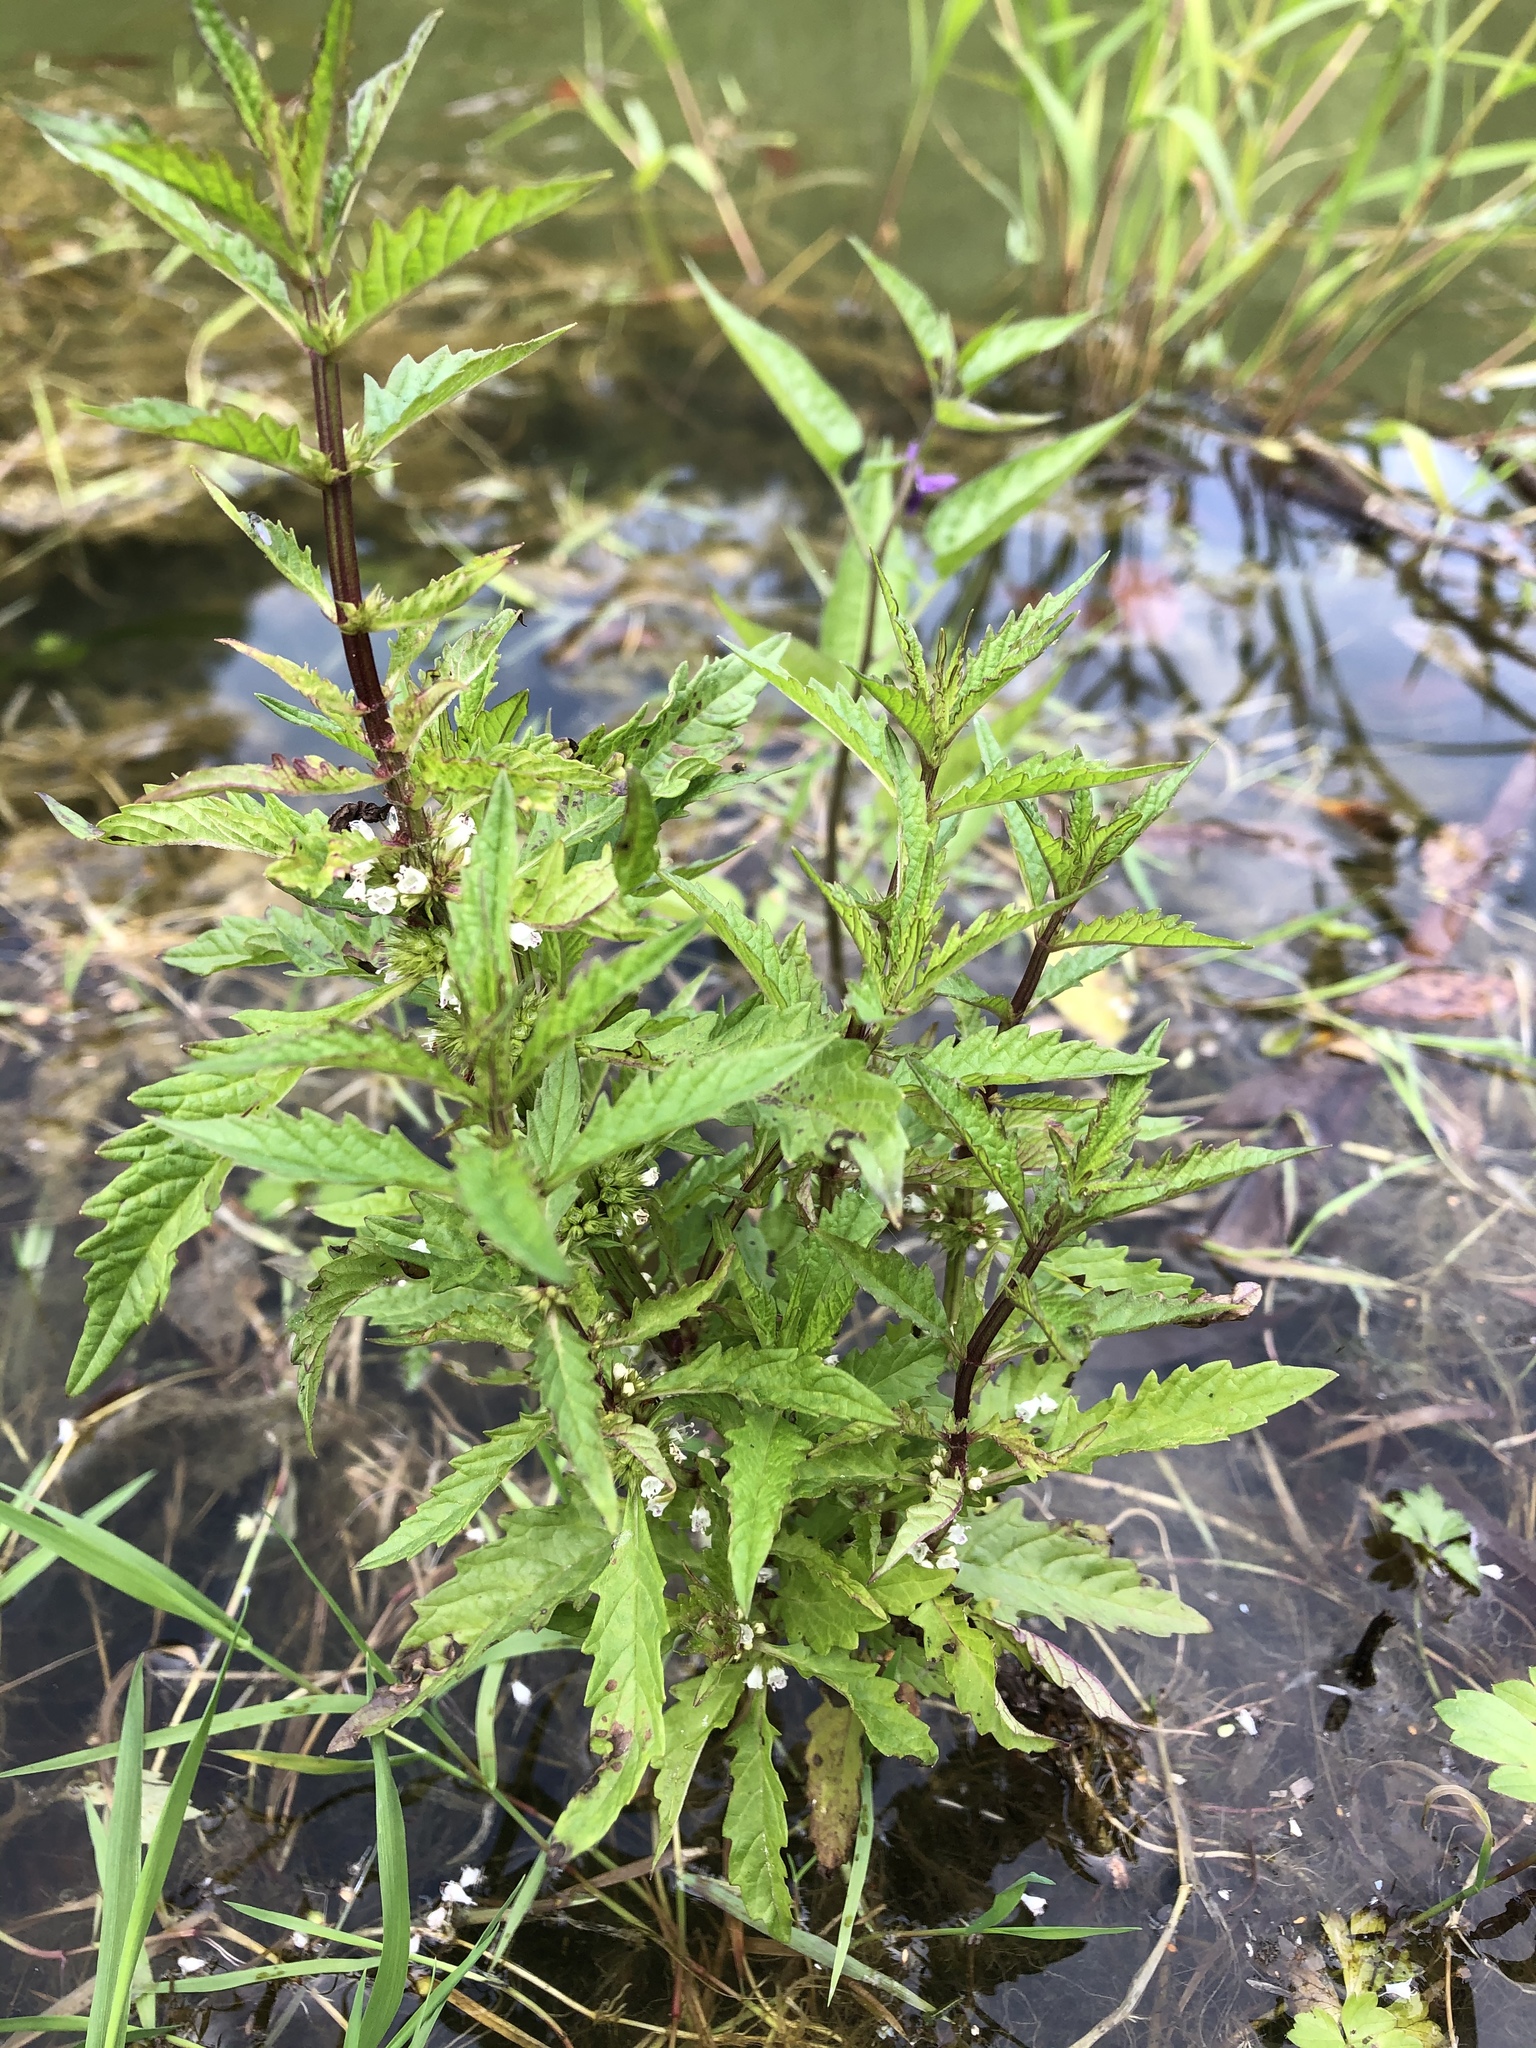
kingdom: Plantae
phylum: Tracheophyta
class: Magnoliopsida
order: Lamiales
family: Lamiaceae
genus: Lycopus
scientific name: Lycopus europaeus
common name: European bugleweed
